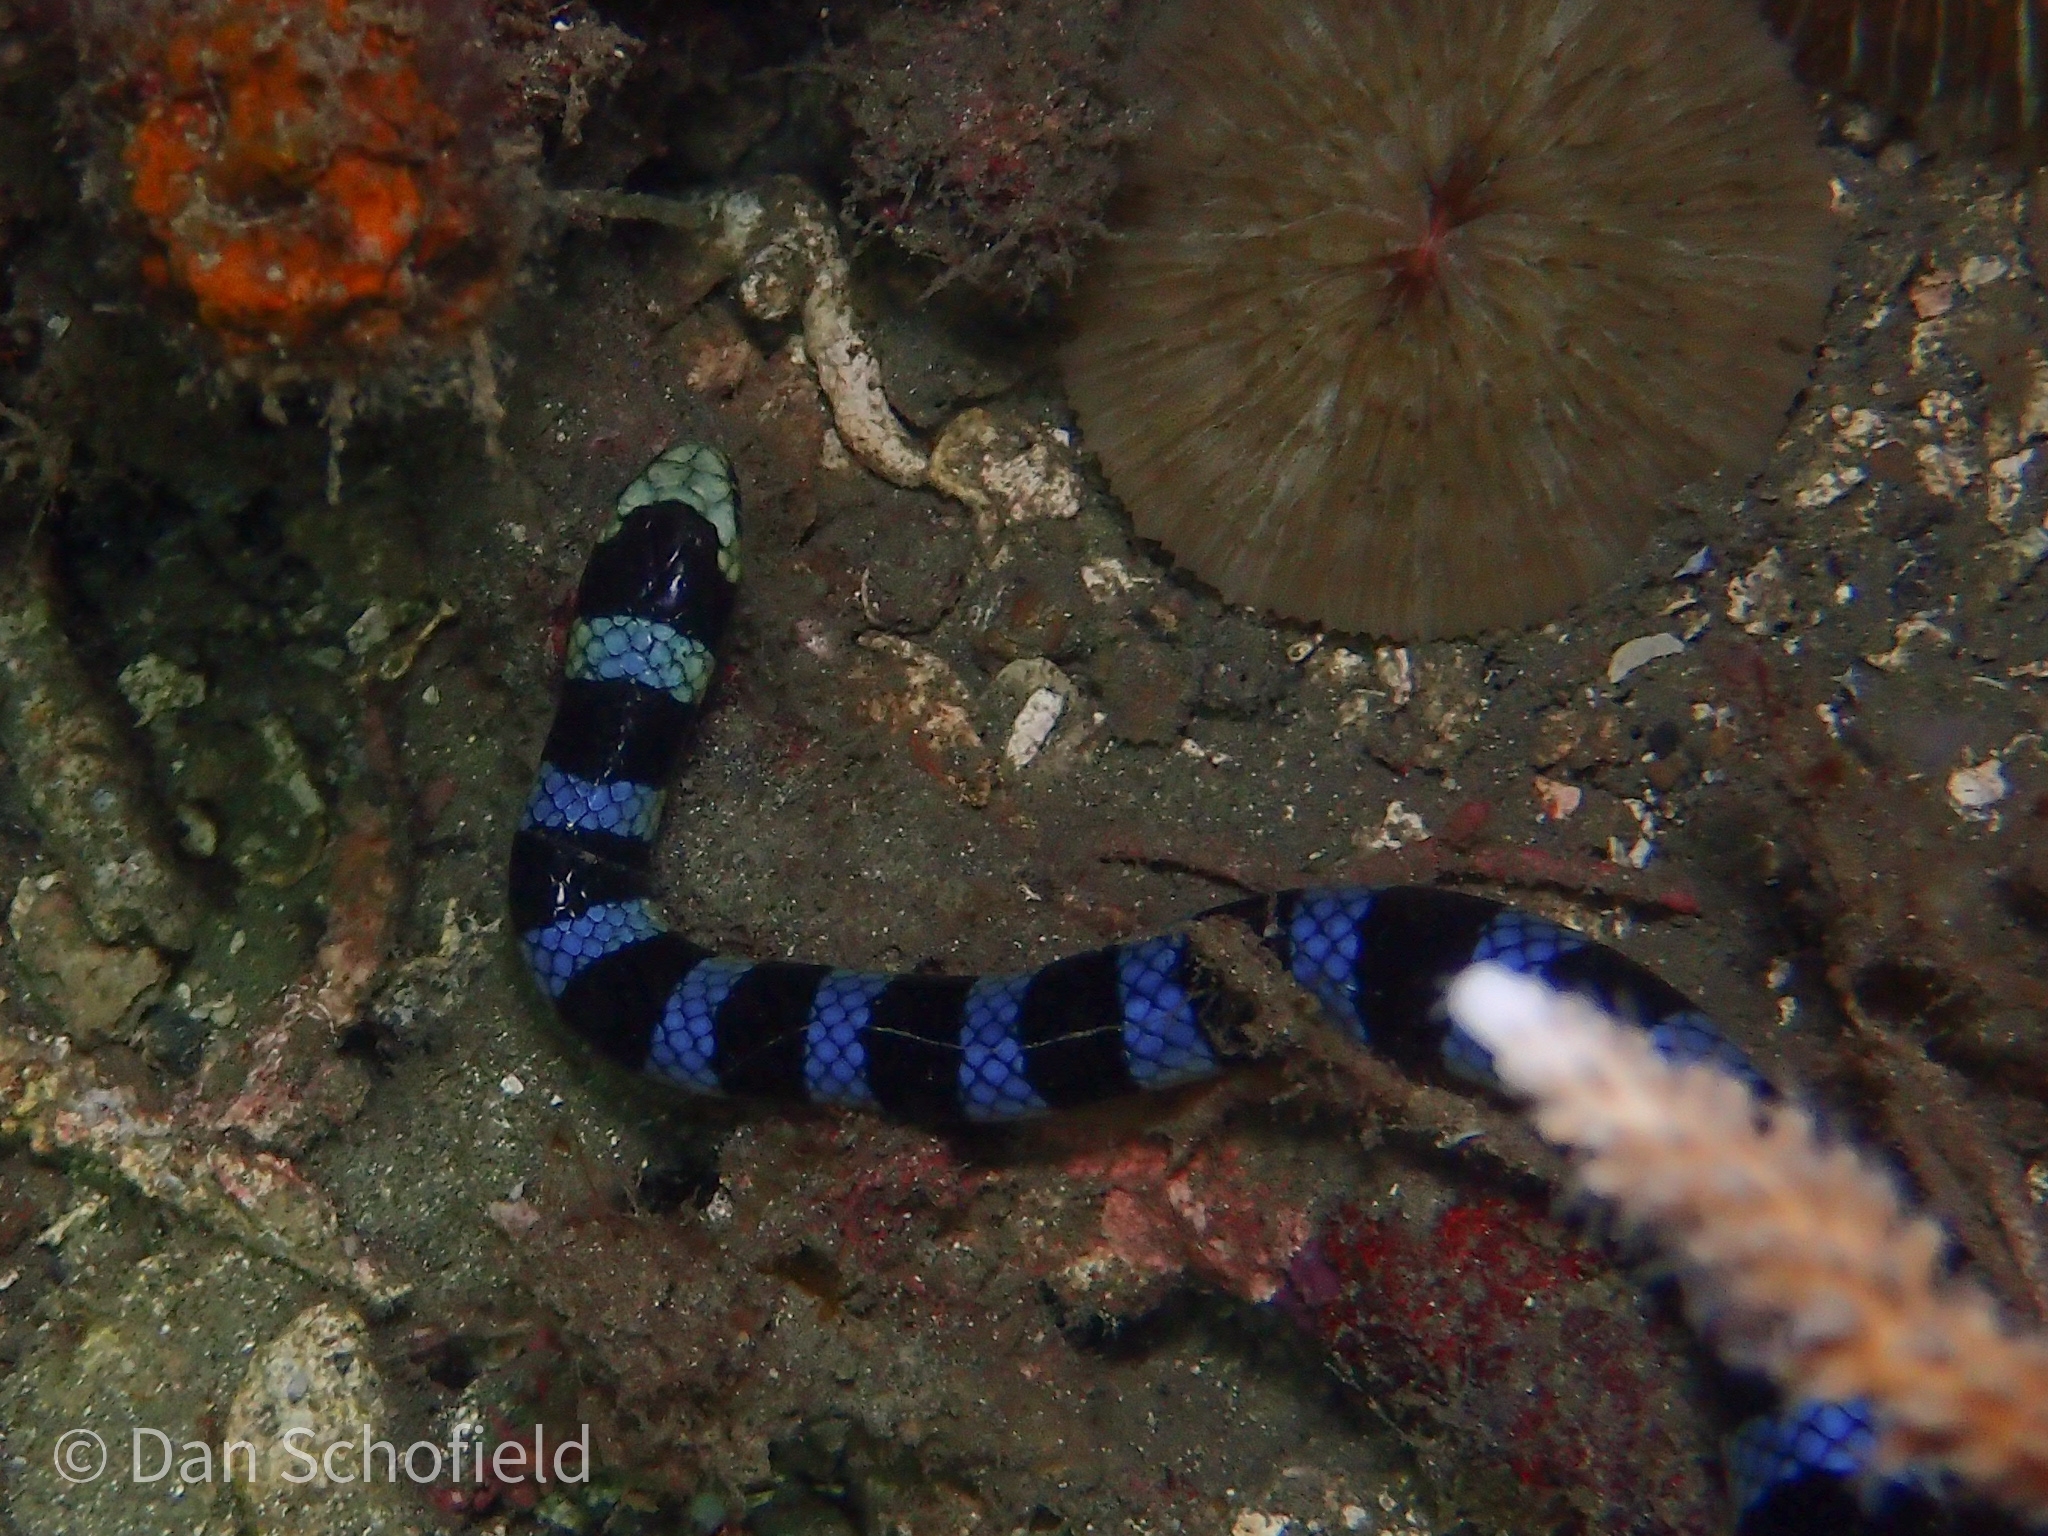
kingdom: Animalia
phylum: Chordata
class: Squamata
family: Elapidae
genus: Laticauda
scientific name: Laticauda colubrina
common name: Yellow-lipped sea krait
